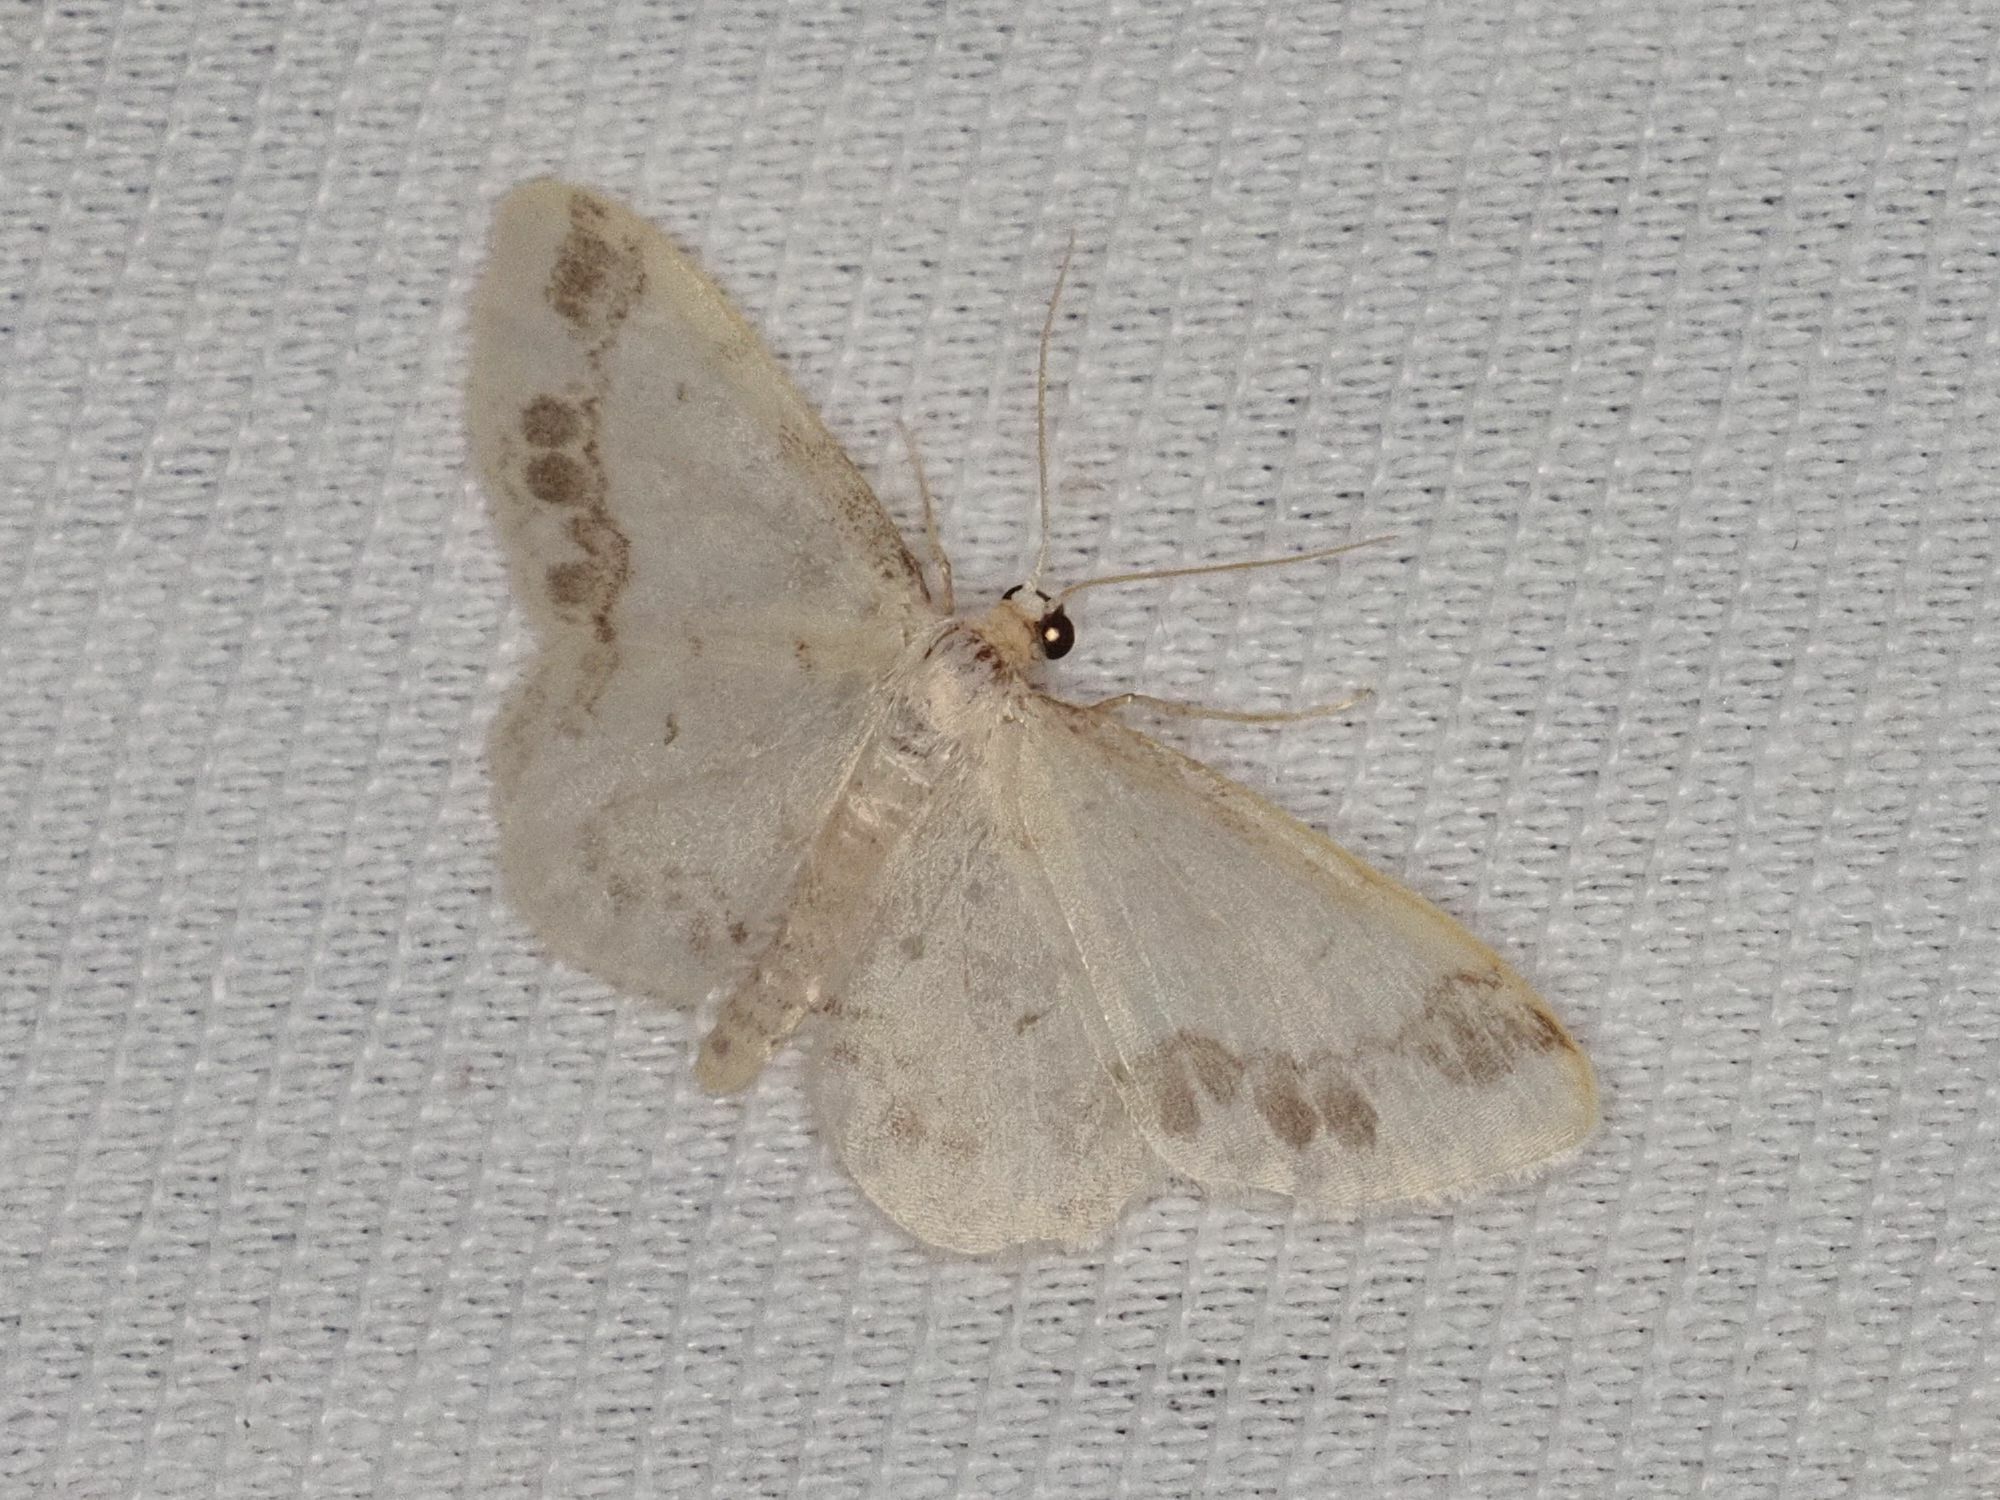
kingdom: Animalia
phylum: Arthropoda
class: Insecta
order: Lepidoptera
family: Geometridae
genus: Idaea
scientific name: Idaea trigeminata
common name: Treble brown spot
